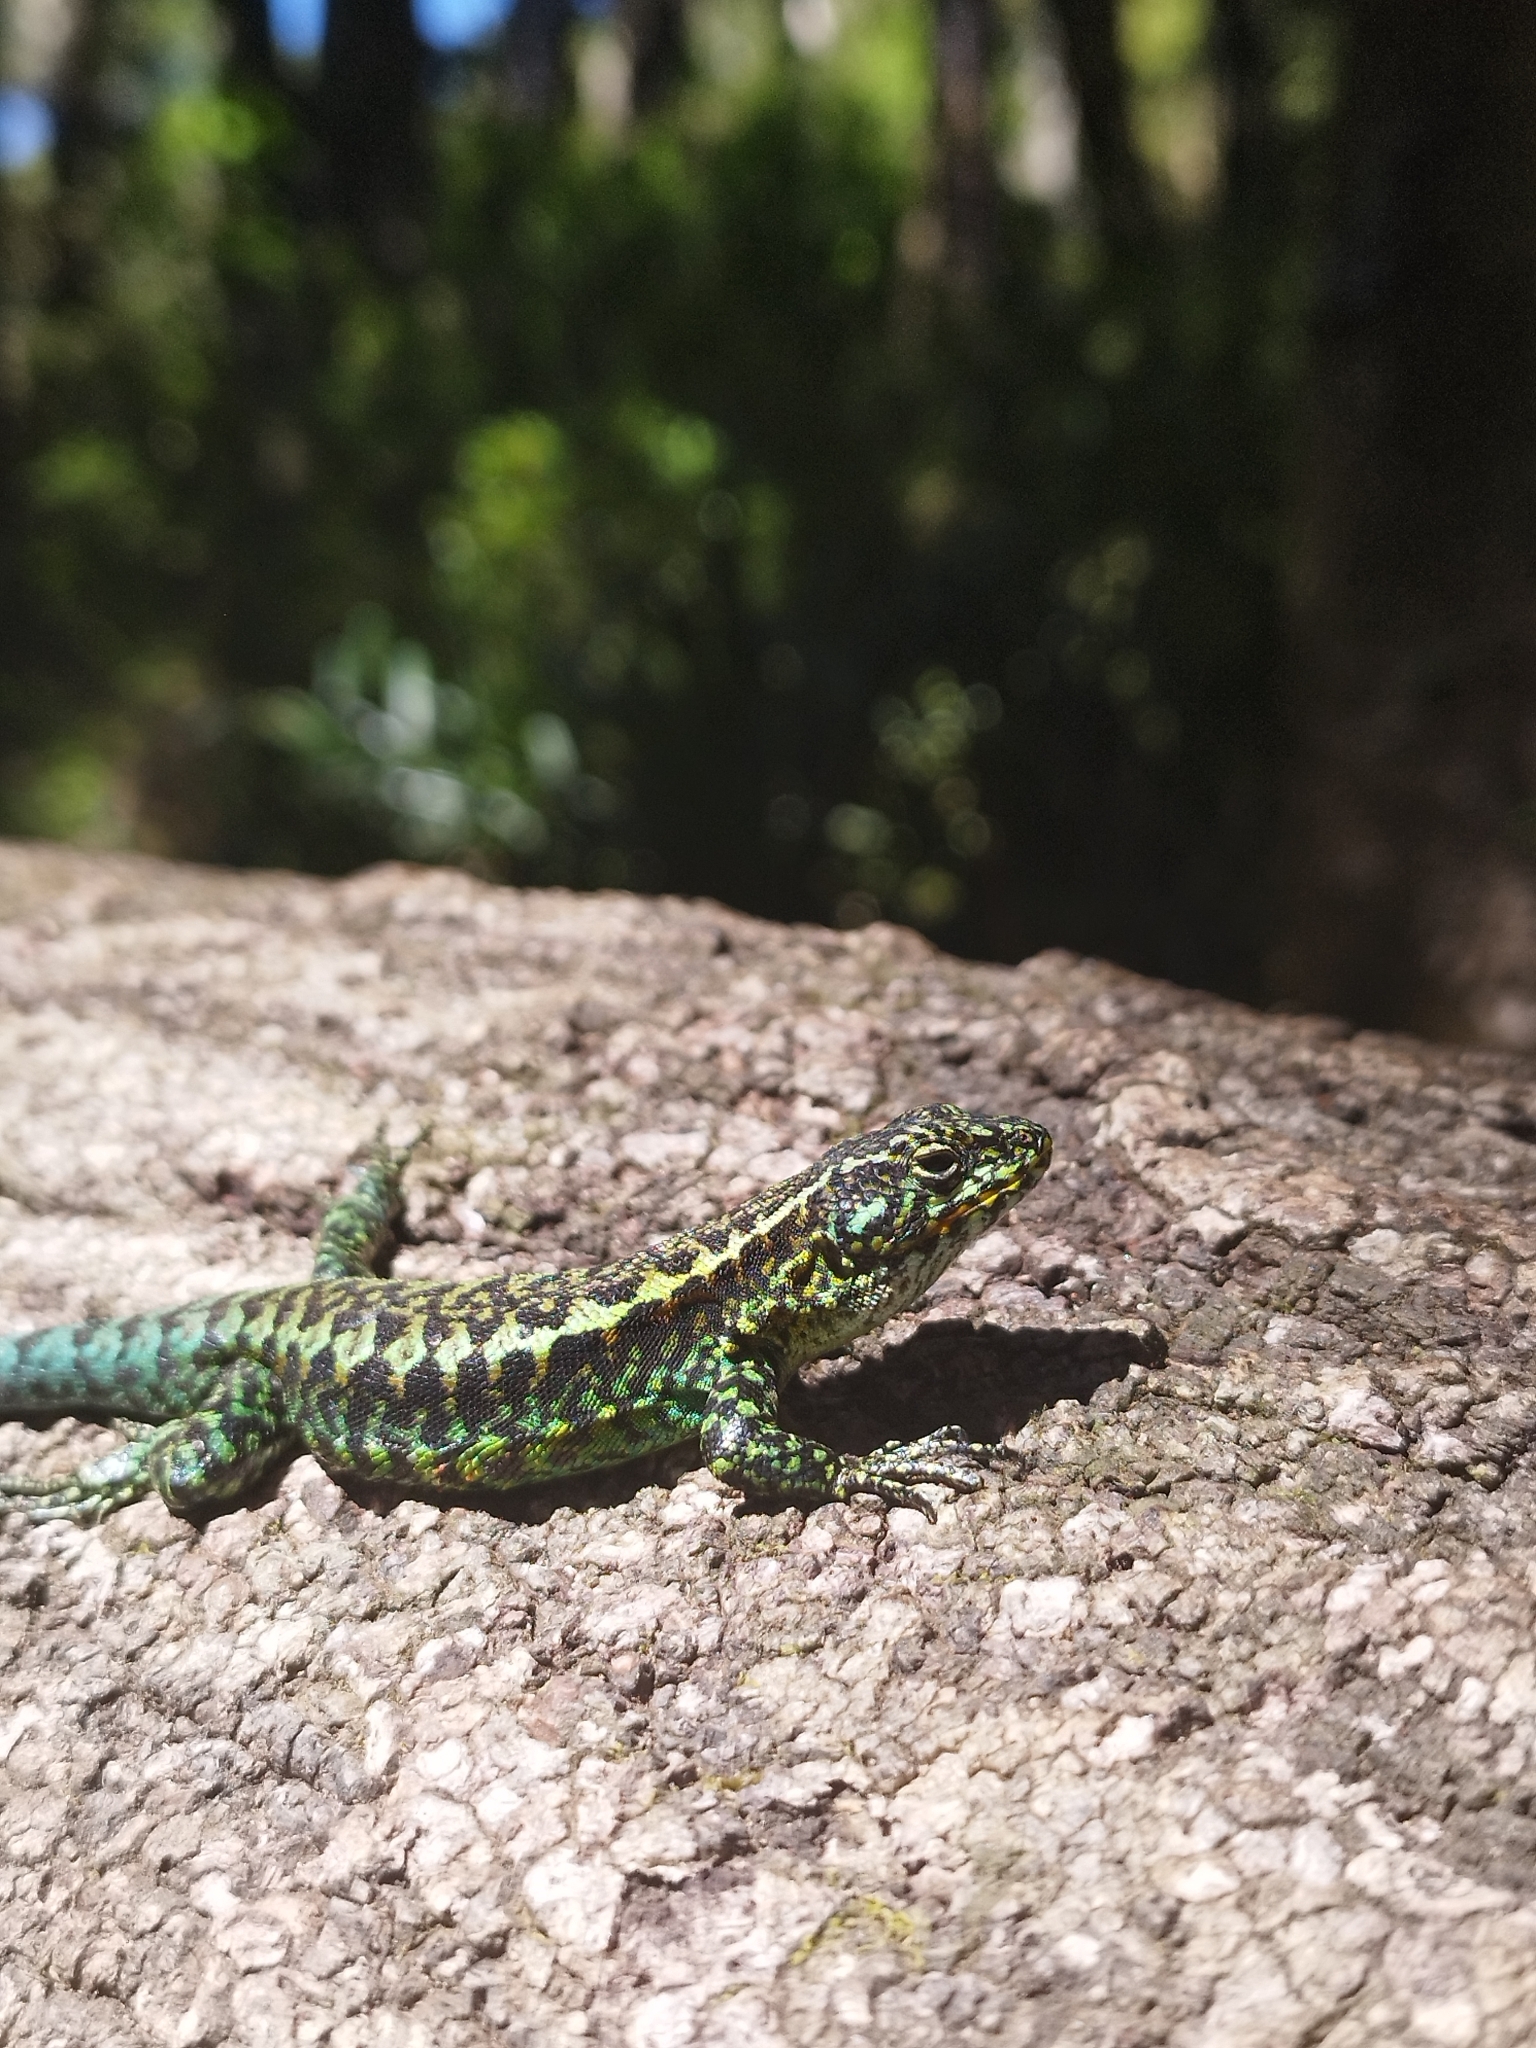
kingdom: Animalia
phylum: Chordata
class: Squamata
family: Liolaemidae
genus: Liolaemus
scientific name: Liolaemus pictus
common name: Painted tree iguana
